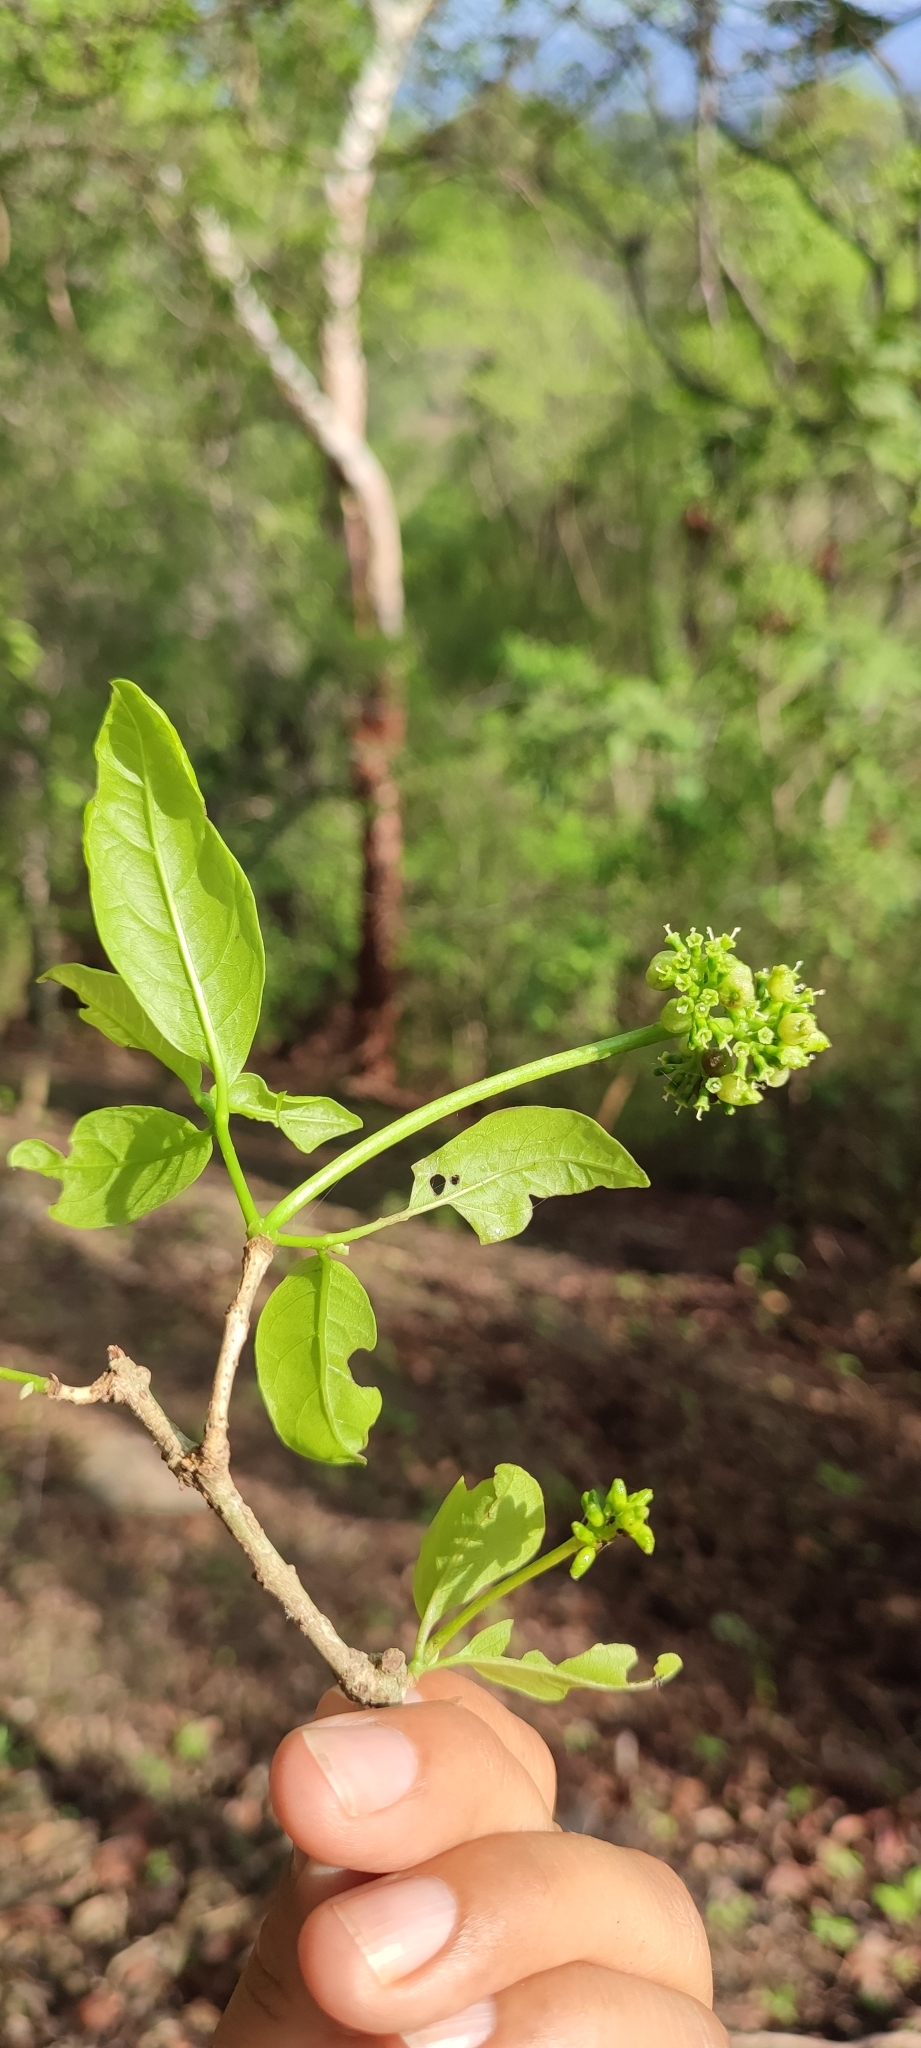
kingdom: Plantae
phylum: Tracheophyta
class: Magnoliopsida
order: Caryophyllales
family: Nyctaginaceae
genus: Guapira
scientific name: Guapira petenensis
